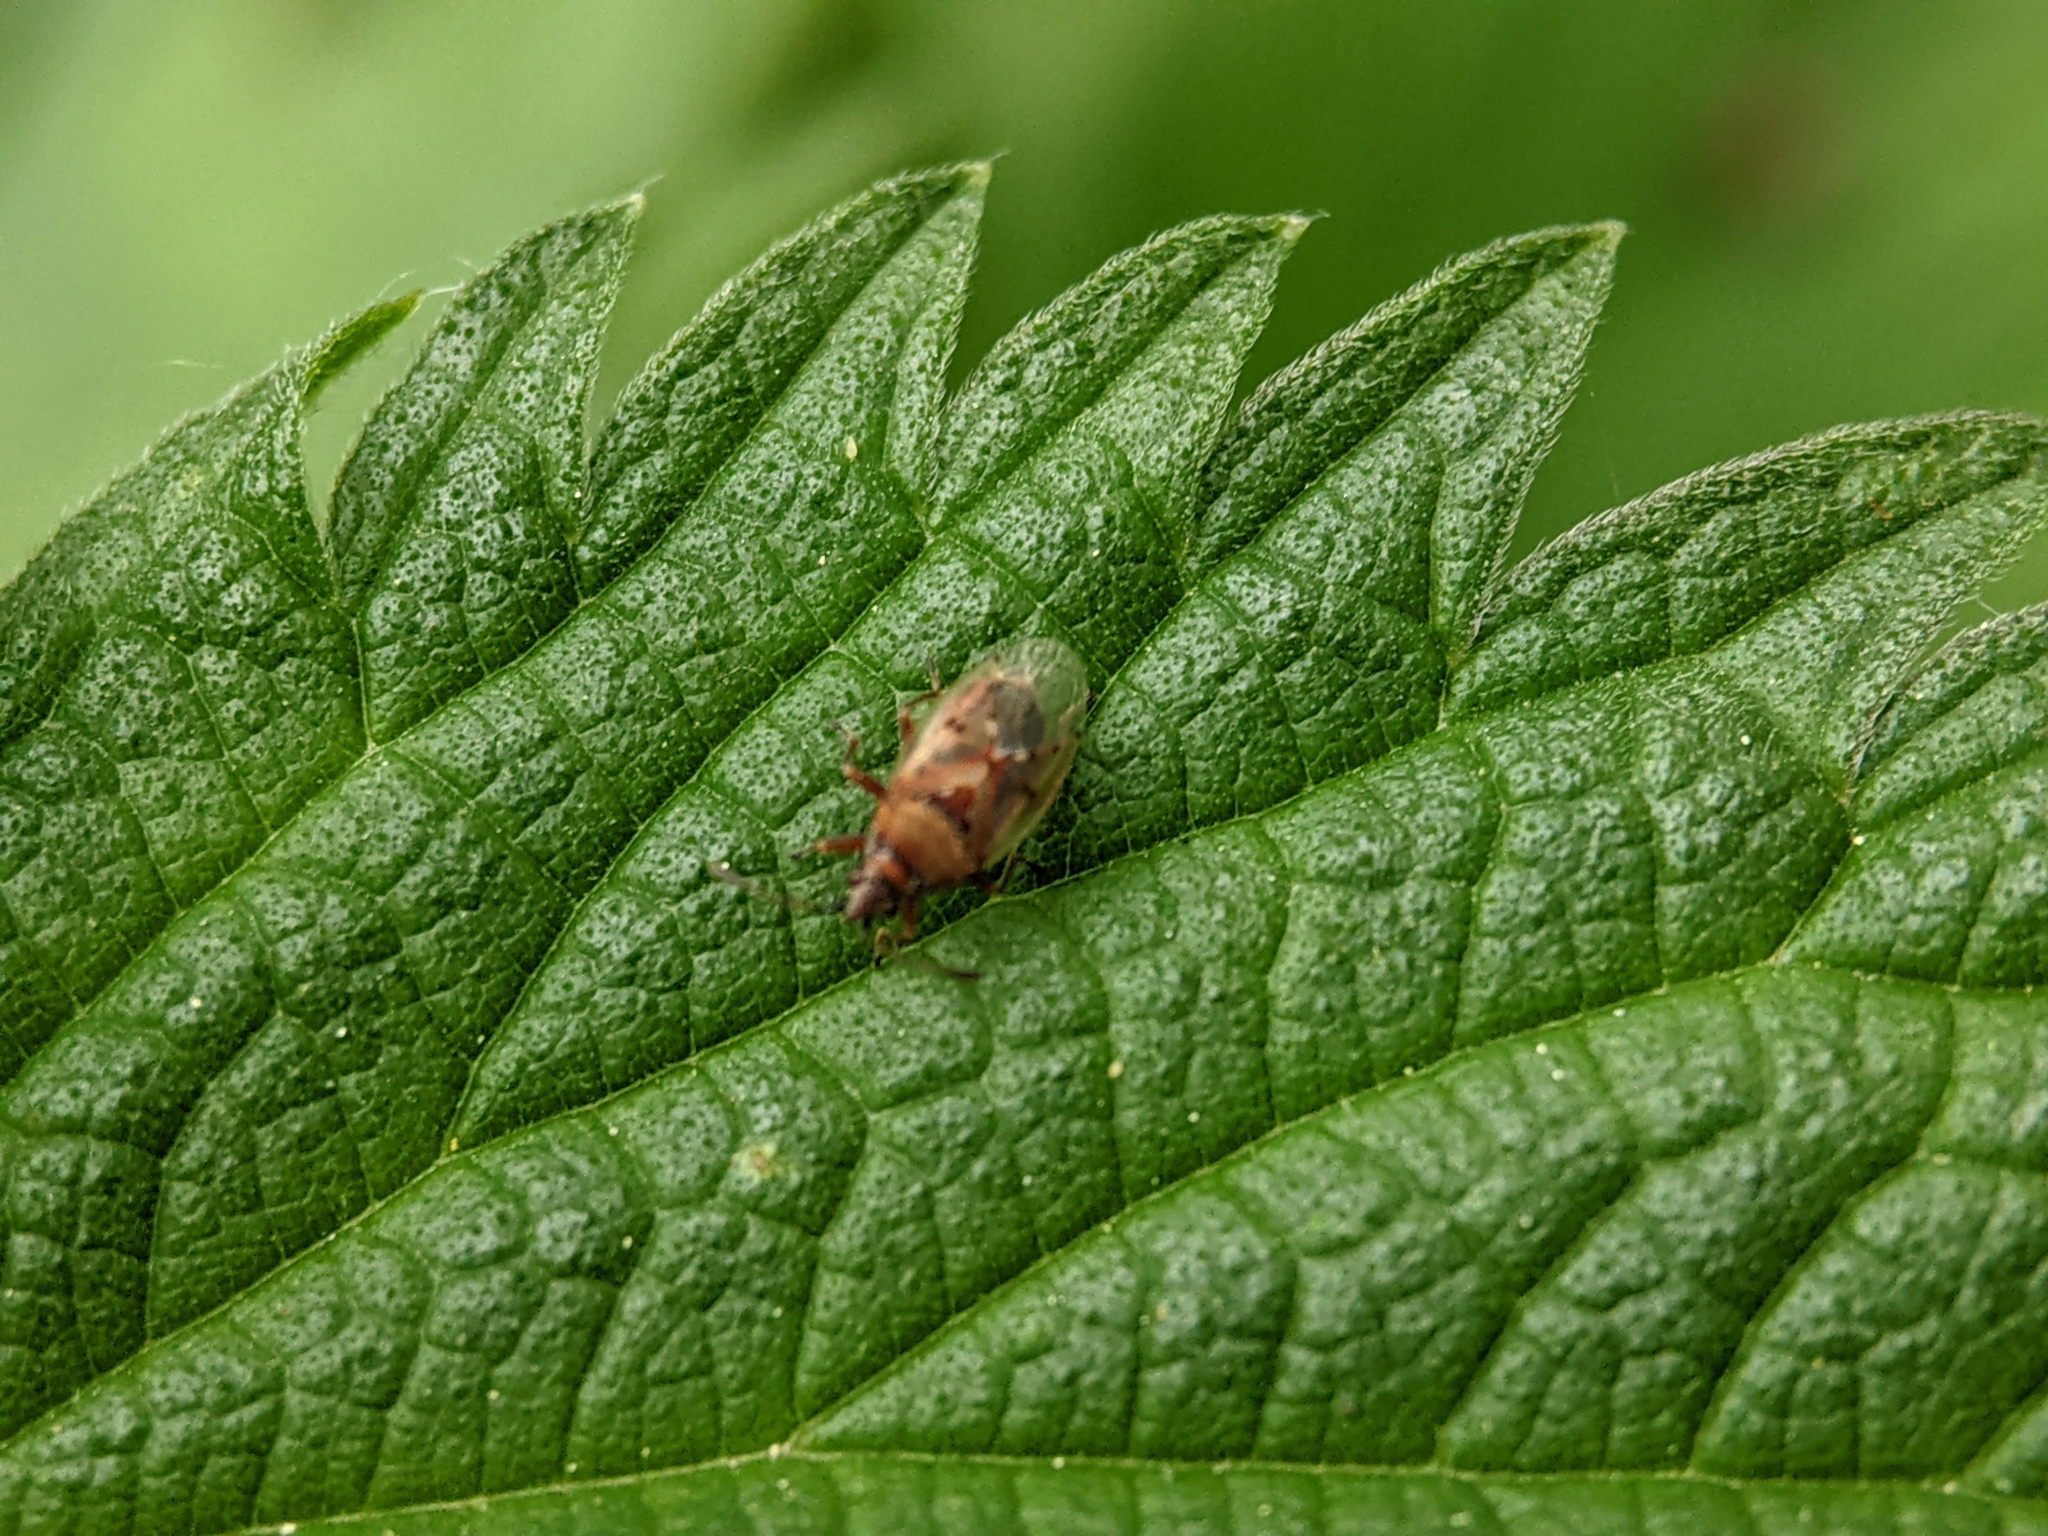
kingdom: Animalia
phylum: Arthropoda
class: Insecta
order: Hemiptera
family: Lygaeidae
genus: Kleidocerys
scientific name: Kleidocerys resedae
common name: Birch catkin bug
